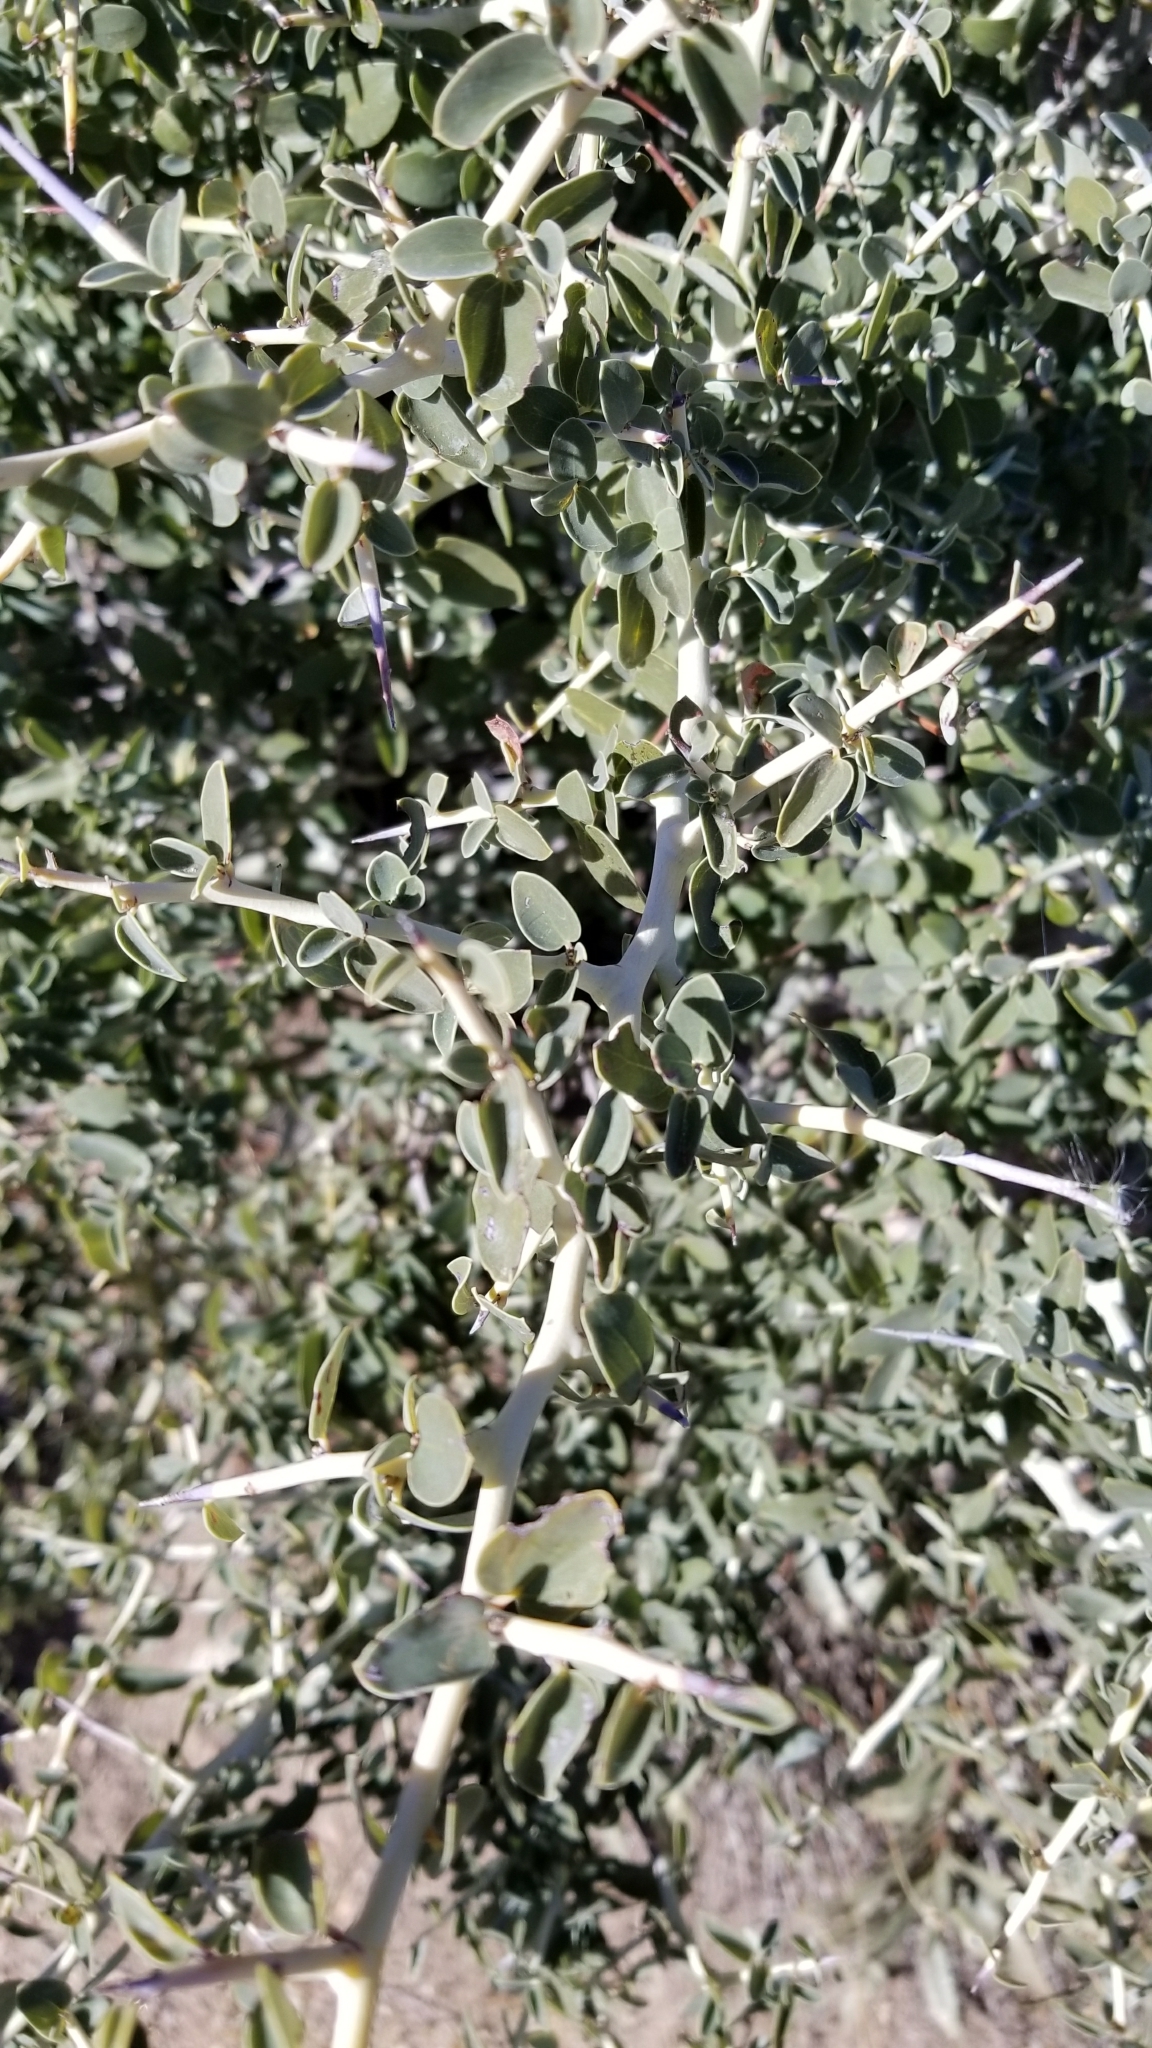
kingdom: Plantae
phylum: Tracheophyta
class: Magnoliopsida
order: Rosales
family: Rhamnaceae
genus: Ceanothus
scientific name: Ceanothus leucodermis
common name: Chaparral whitethorn
